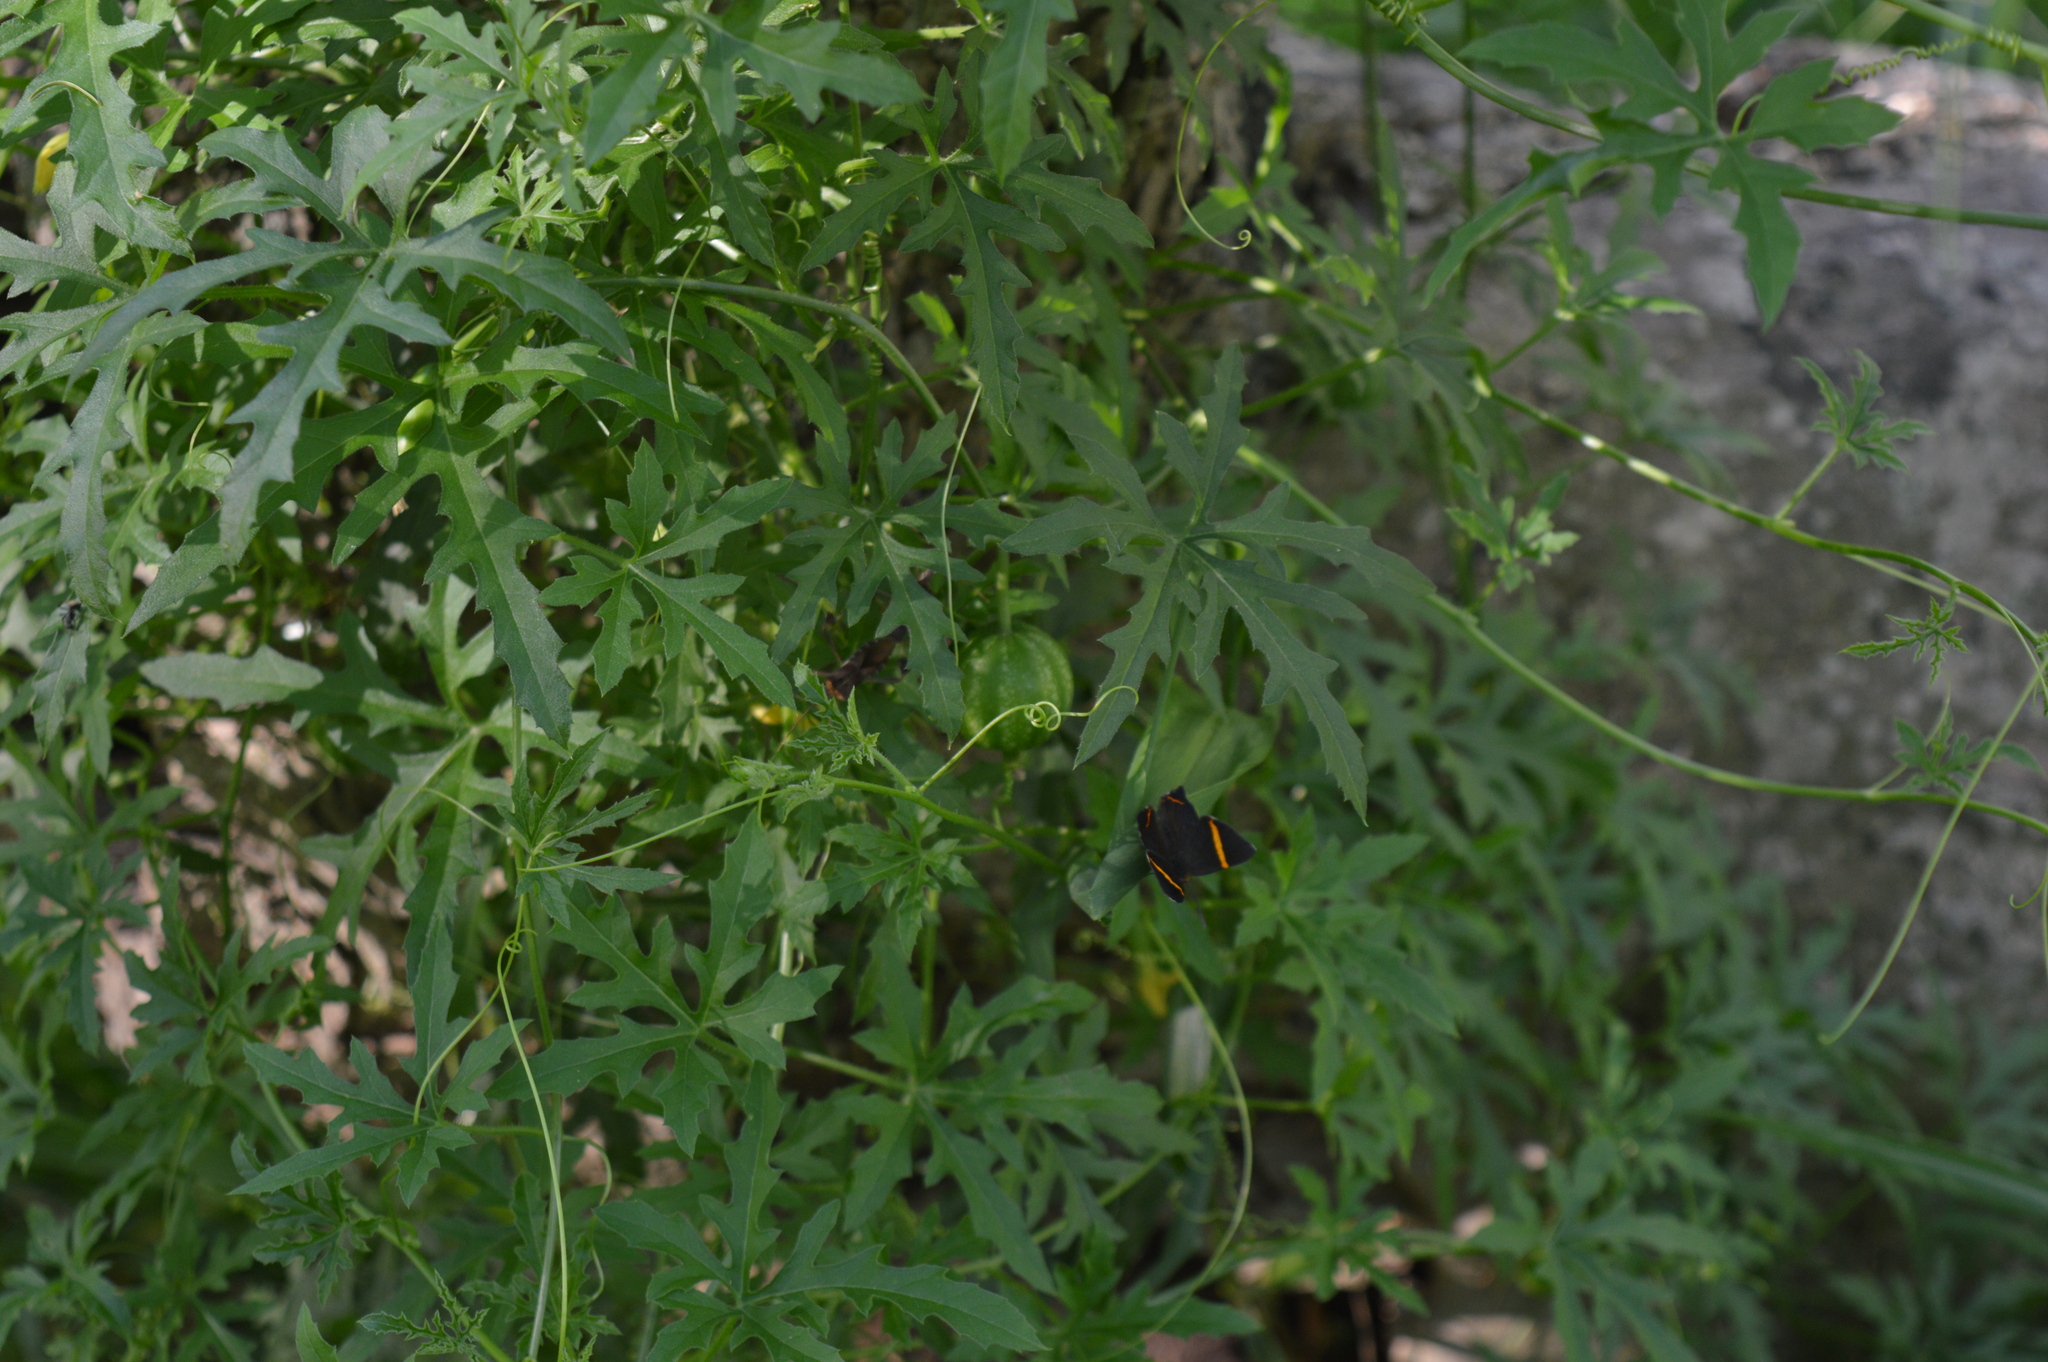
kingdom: Animalia
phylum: Arthropoda
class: Insecta
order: Lepidoptera
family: Riodinidae
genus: Riodina
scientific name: Riodina lysippoides
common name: Little dancer metalmark
